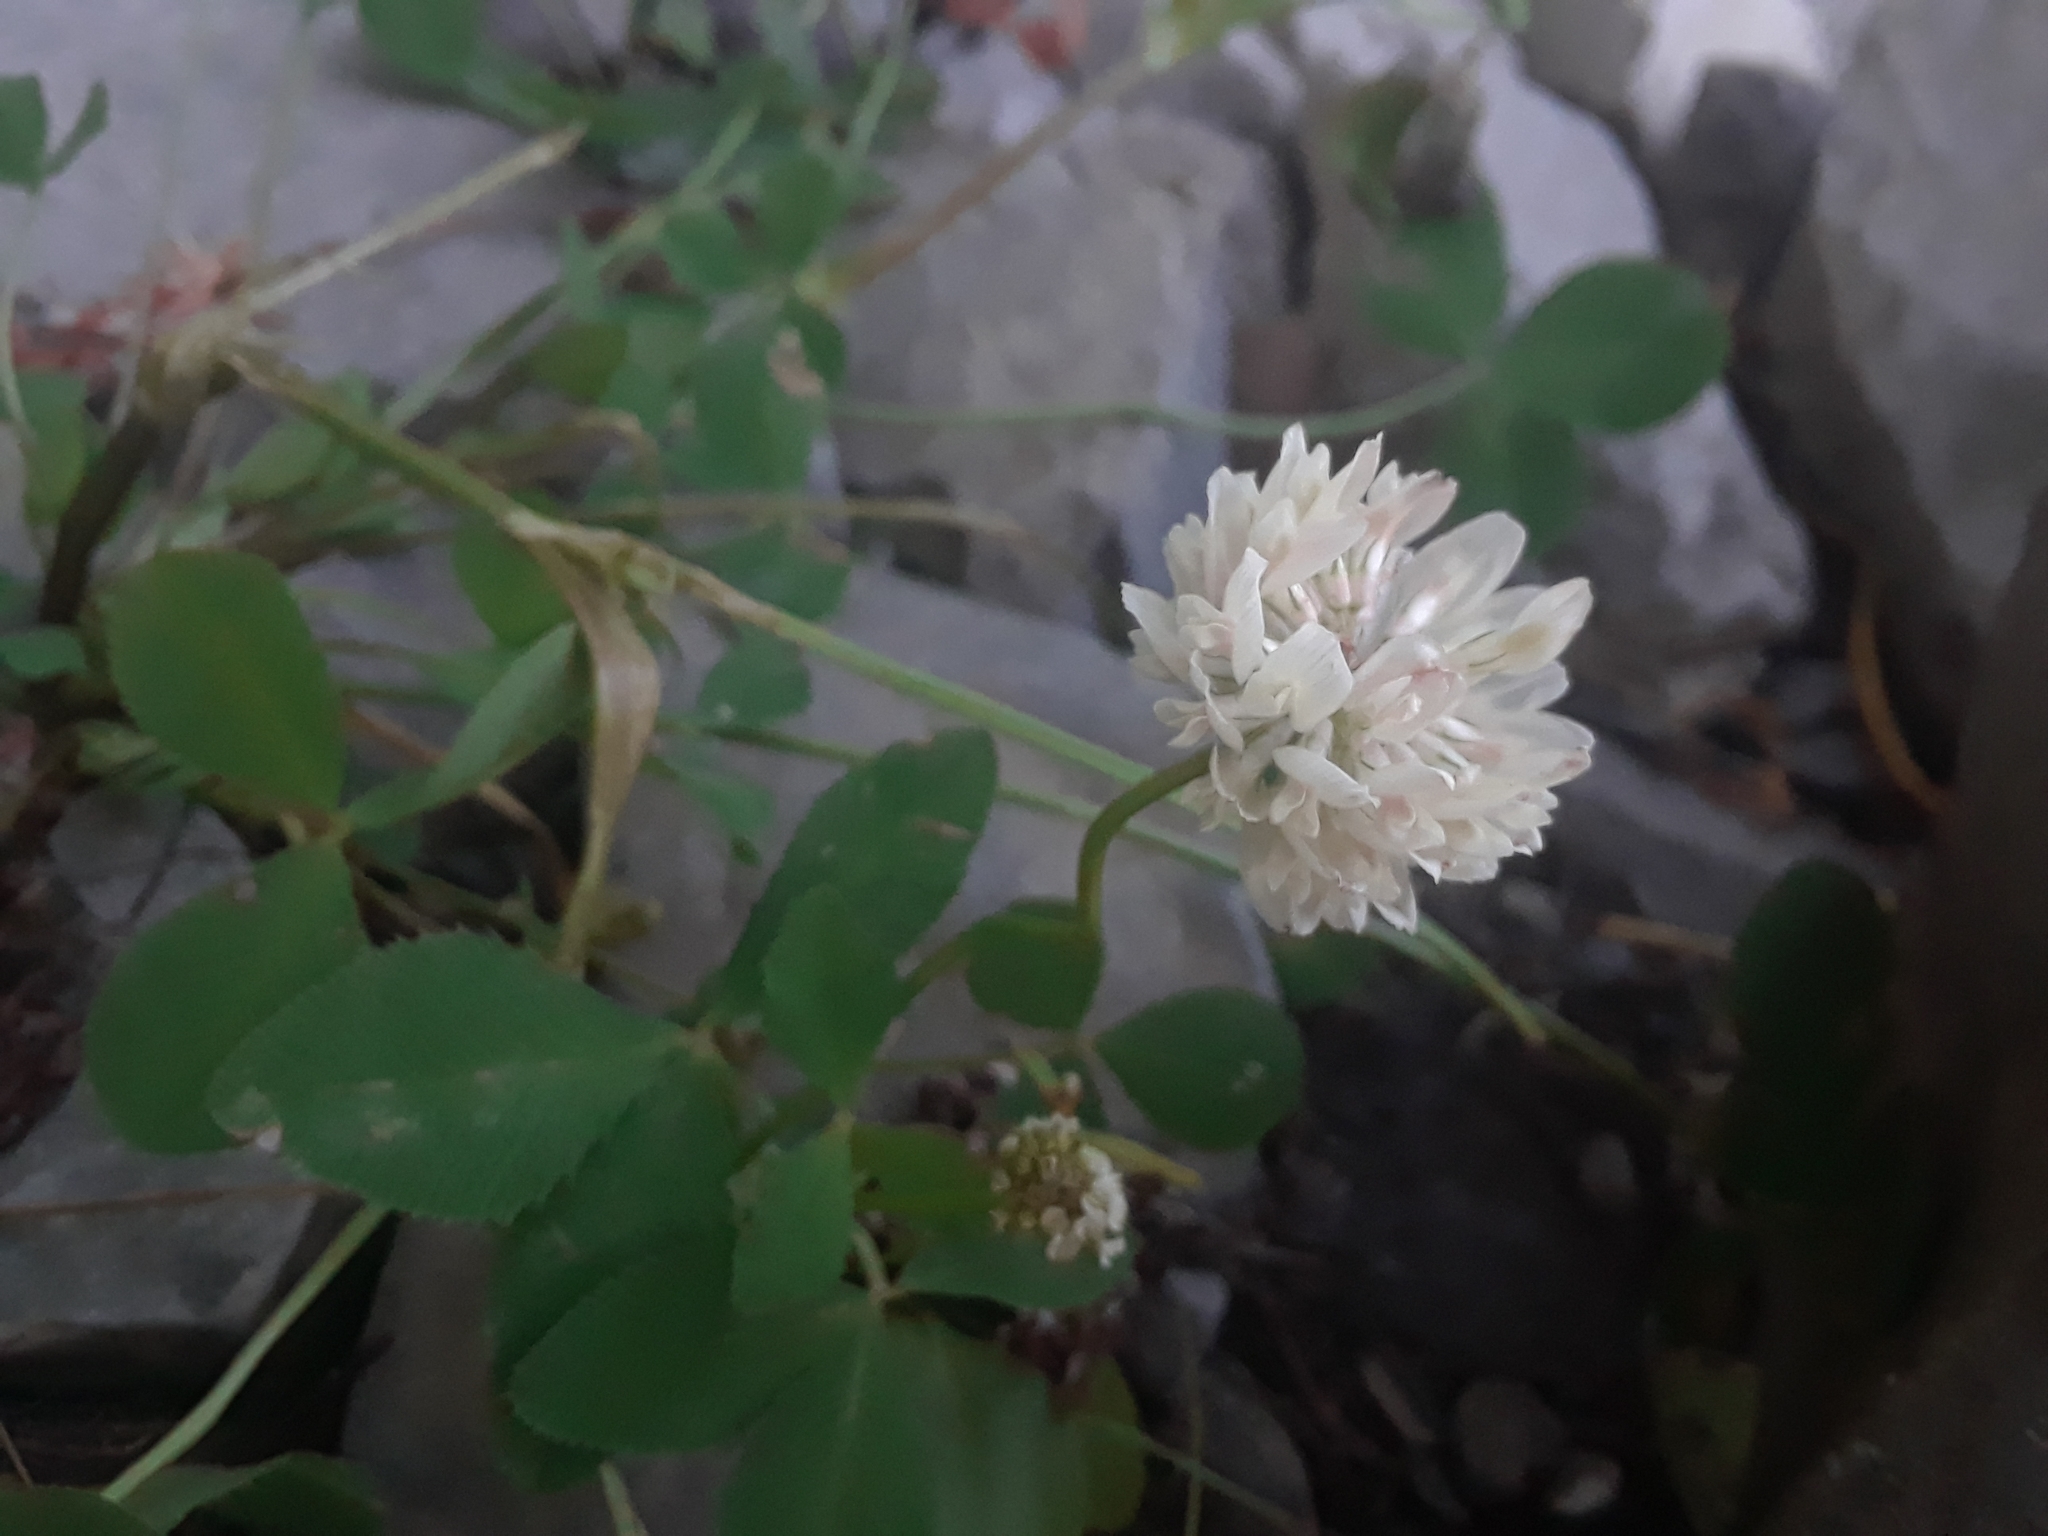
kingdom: Plantae
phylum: Tracheophyta
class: Magnoliopsida
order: Fabales
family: Fabaceae
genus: Trifolium
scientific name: Trifolium hybridum
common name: Alsike clover
